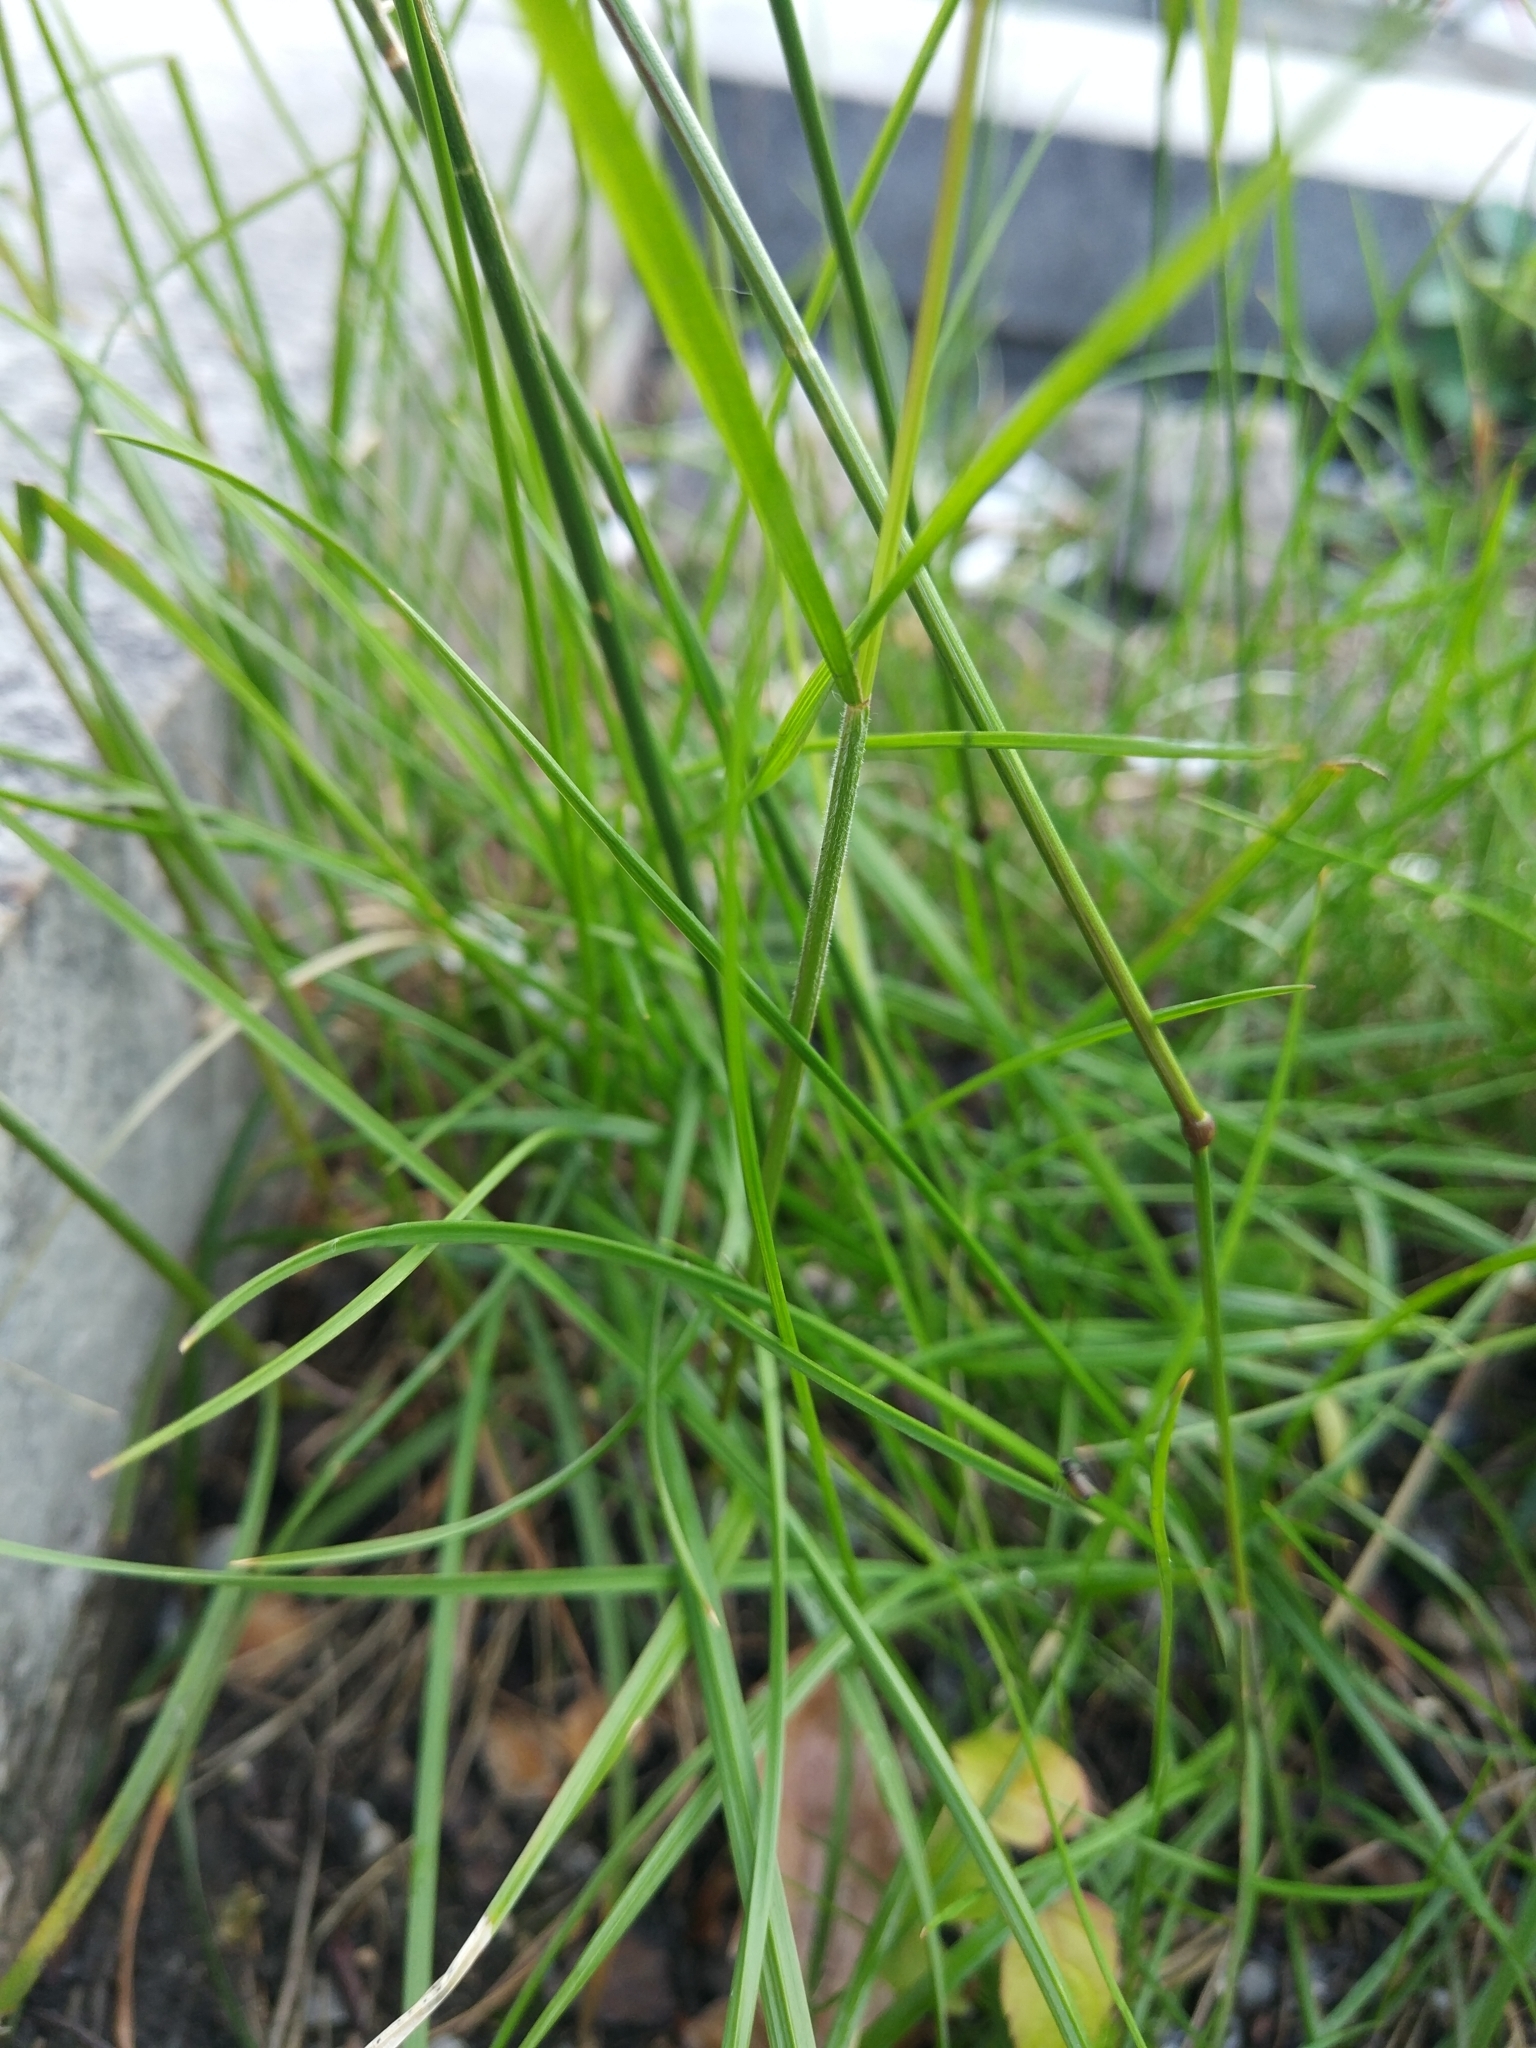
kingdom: Plantae
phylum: Tracheophyta
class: Liliopsida
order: Poales
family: Poaceae
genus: Festuca
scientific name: Festuca rubra
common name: Red fescue
